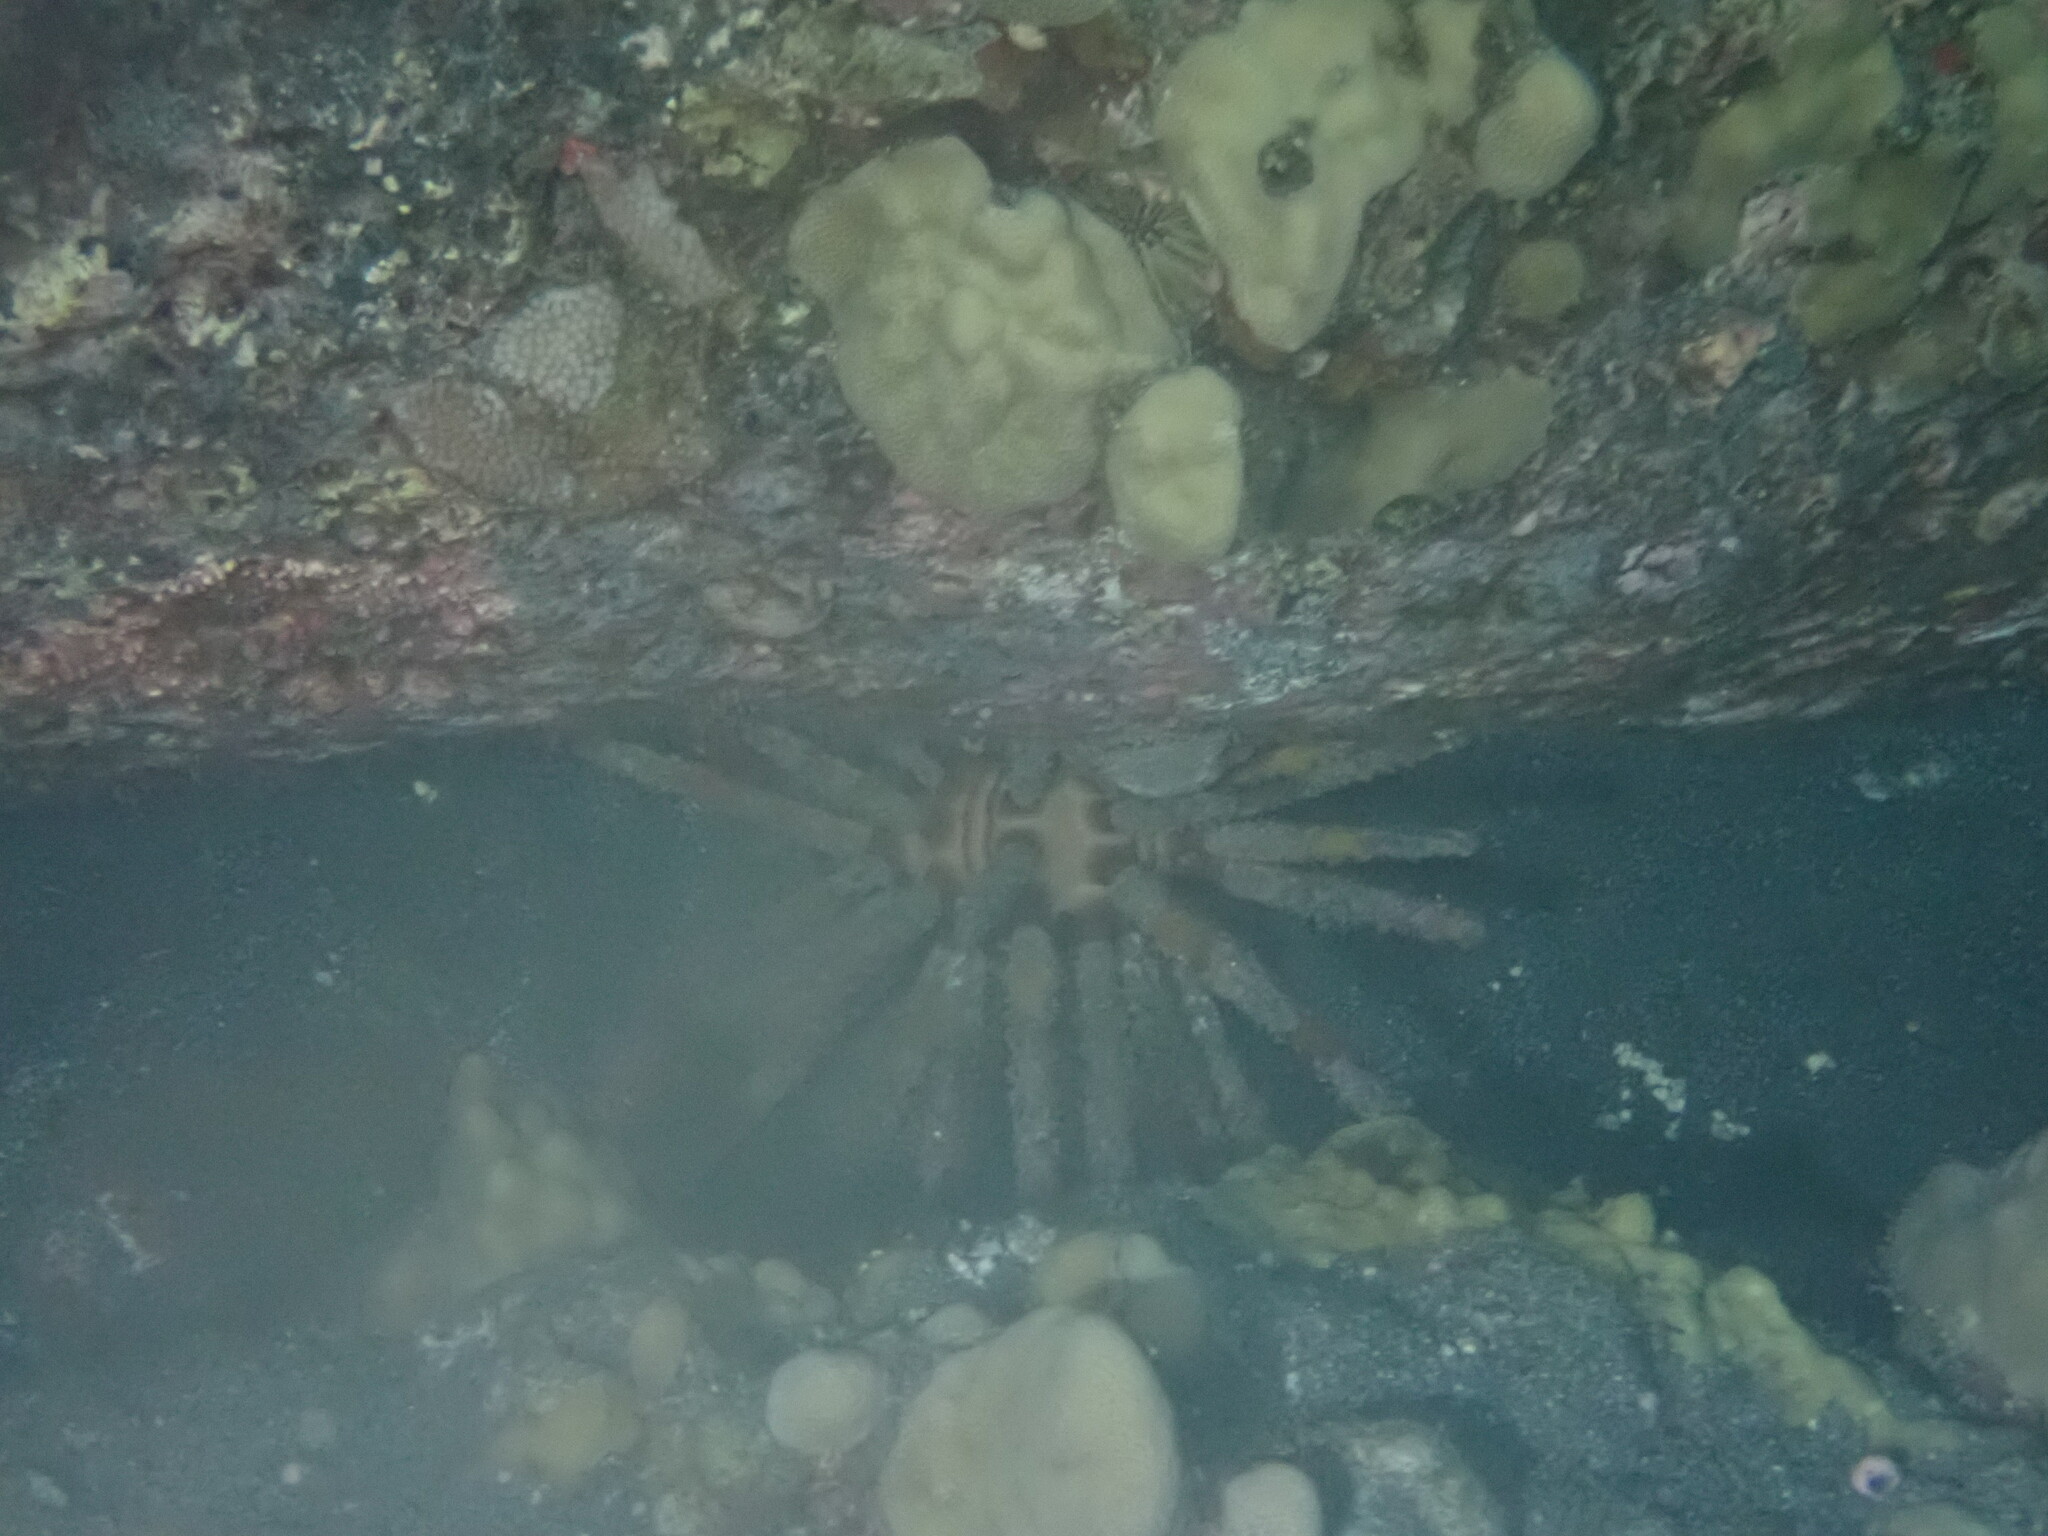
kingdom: Animalia
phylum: Echinodermata
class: Echinoidea
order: Cidaroida
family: Cidaridae
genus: Chondrocidaris
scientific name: Chondrocidaris gigantea
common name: Blade-tipped tiara-urchin
